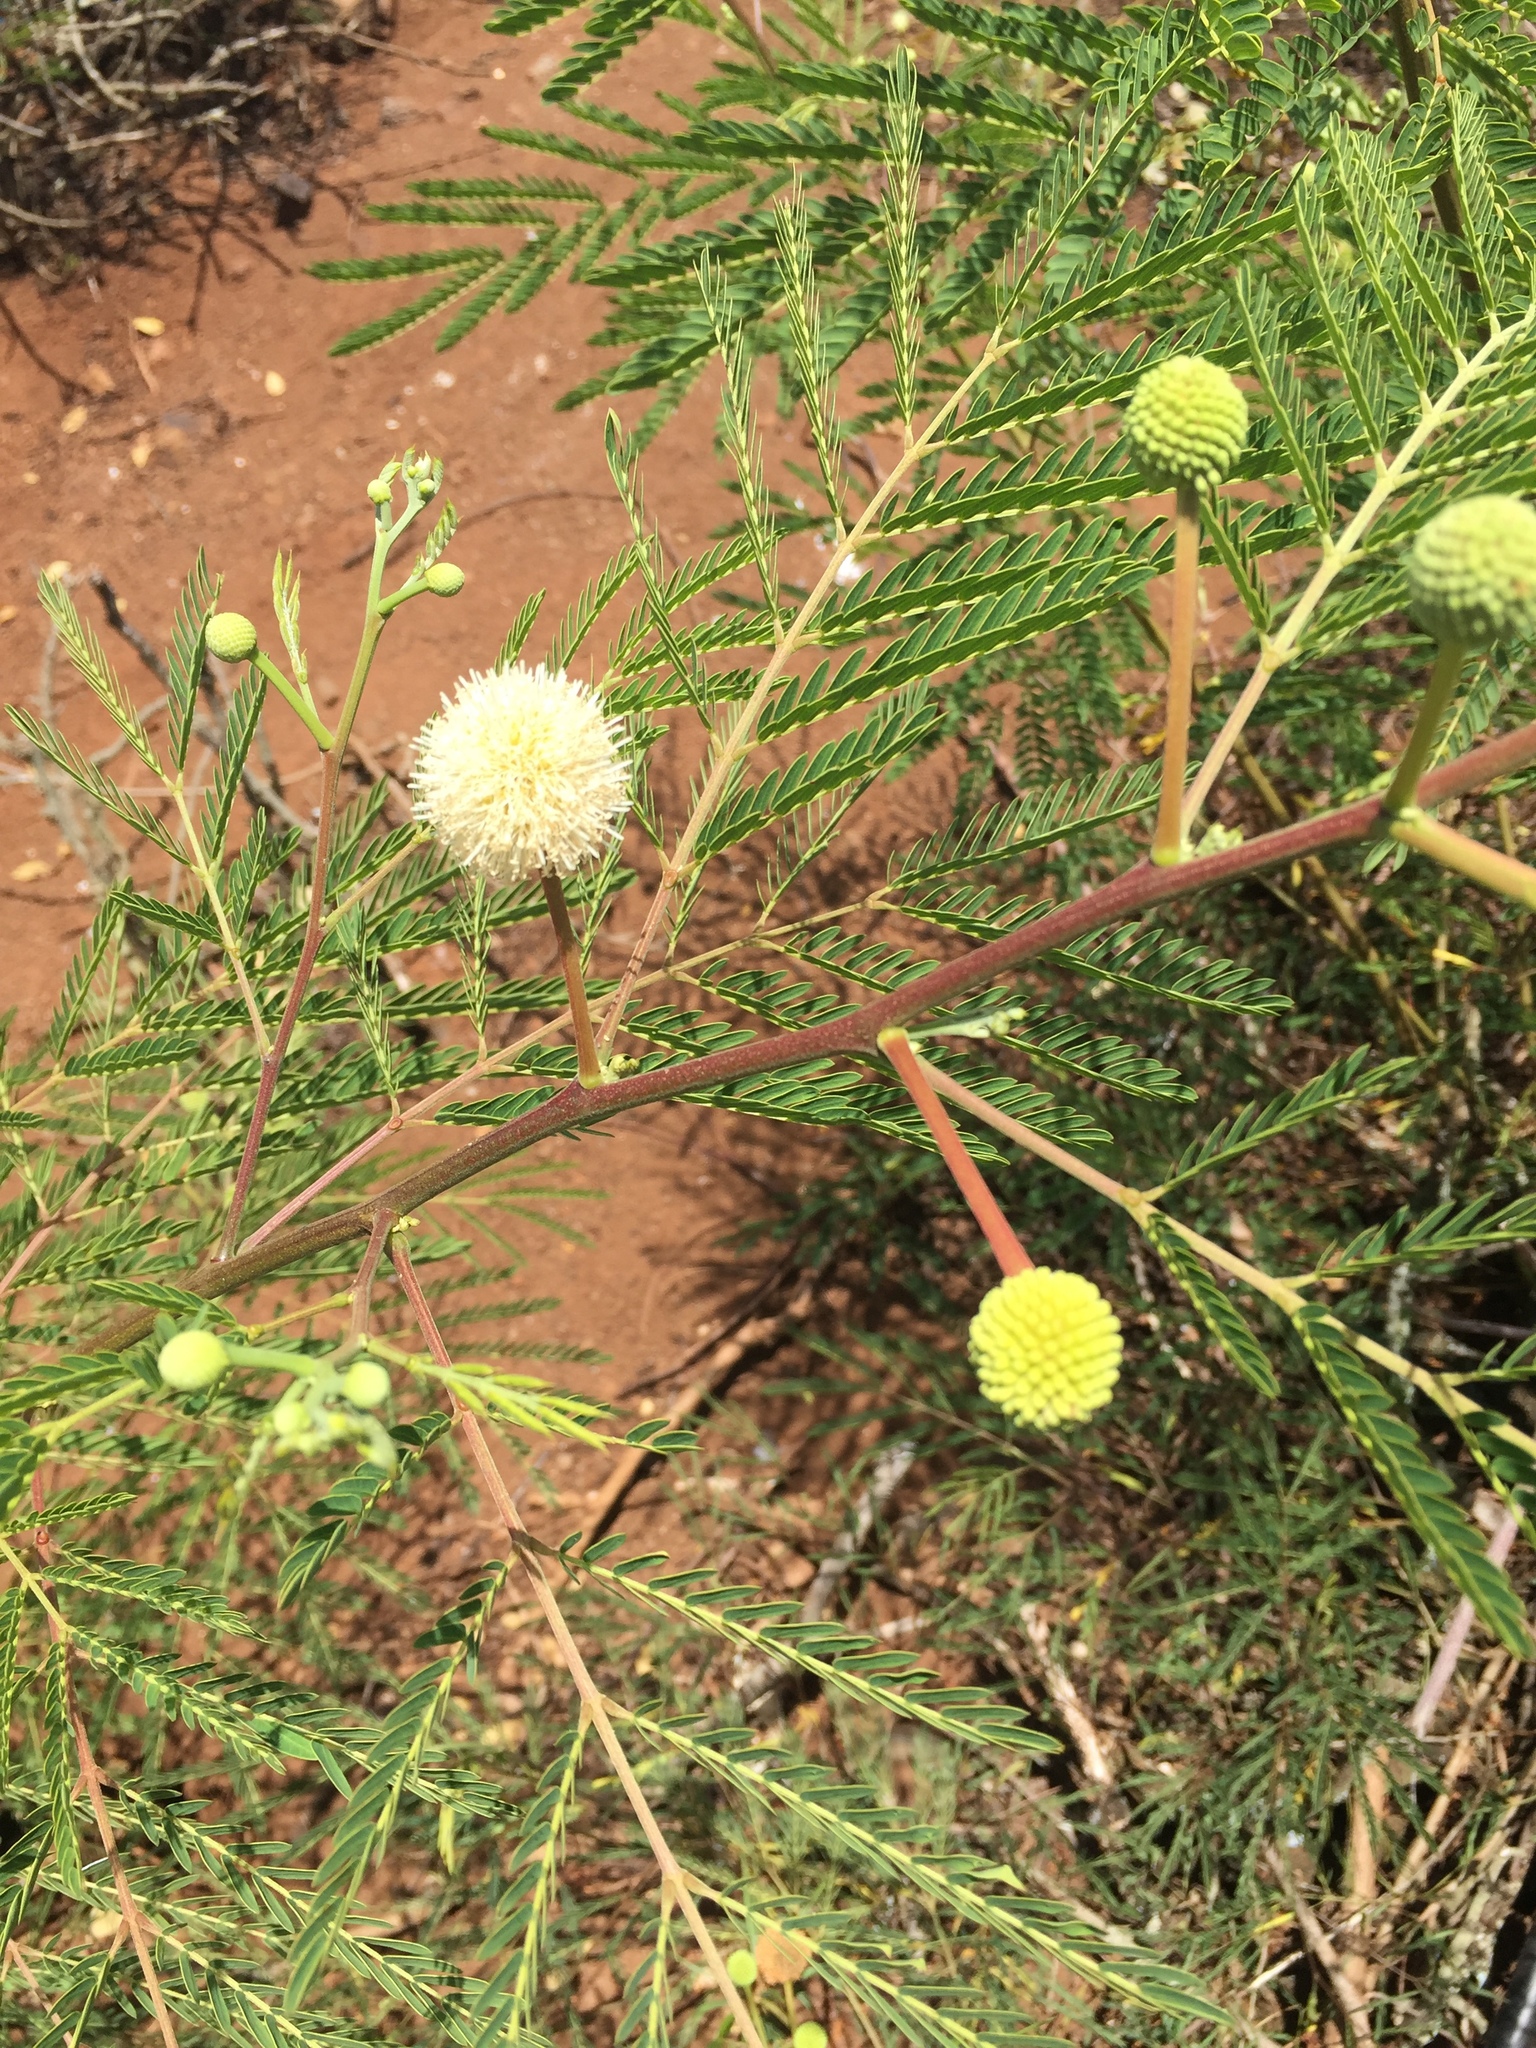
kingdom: Plantae
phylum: Tracheophyta
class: Magnoliopsida
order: Fabales
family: Fabaceae
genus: Leucaena
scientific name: Leucaena leucocephala
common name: White leadtree
